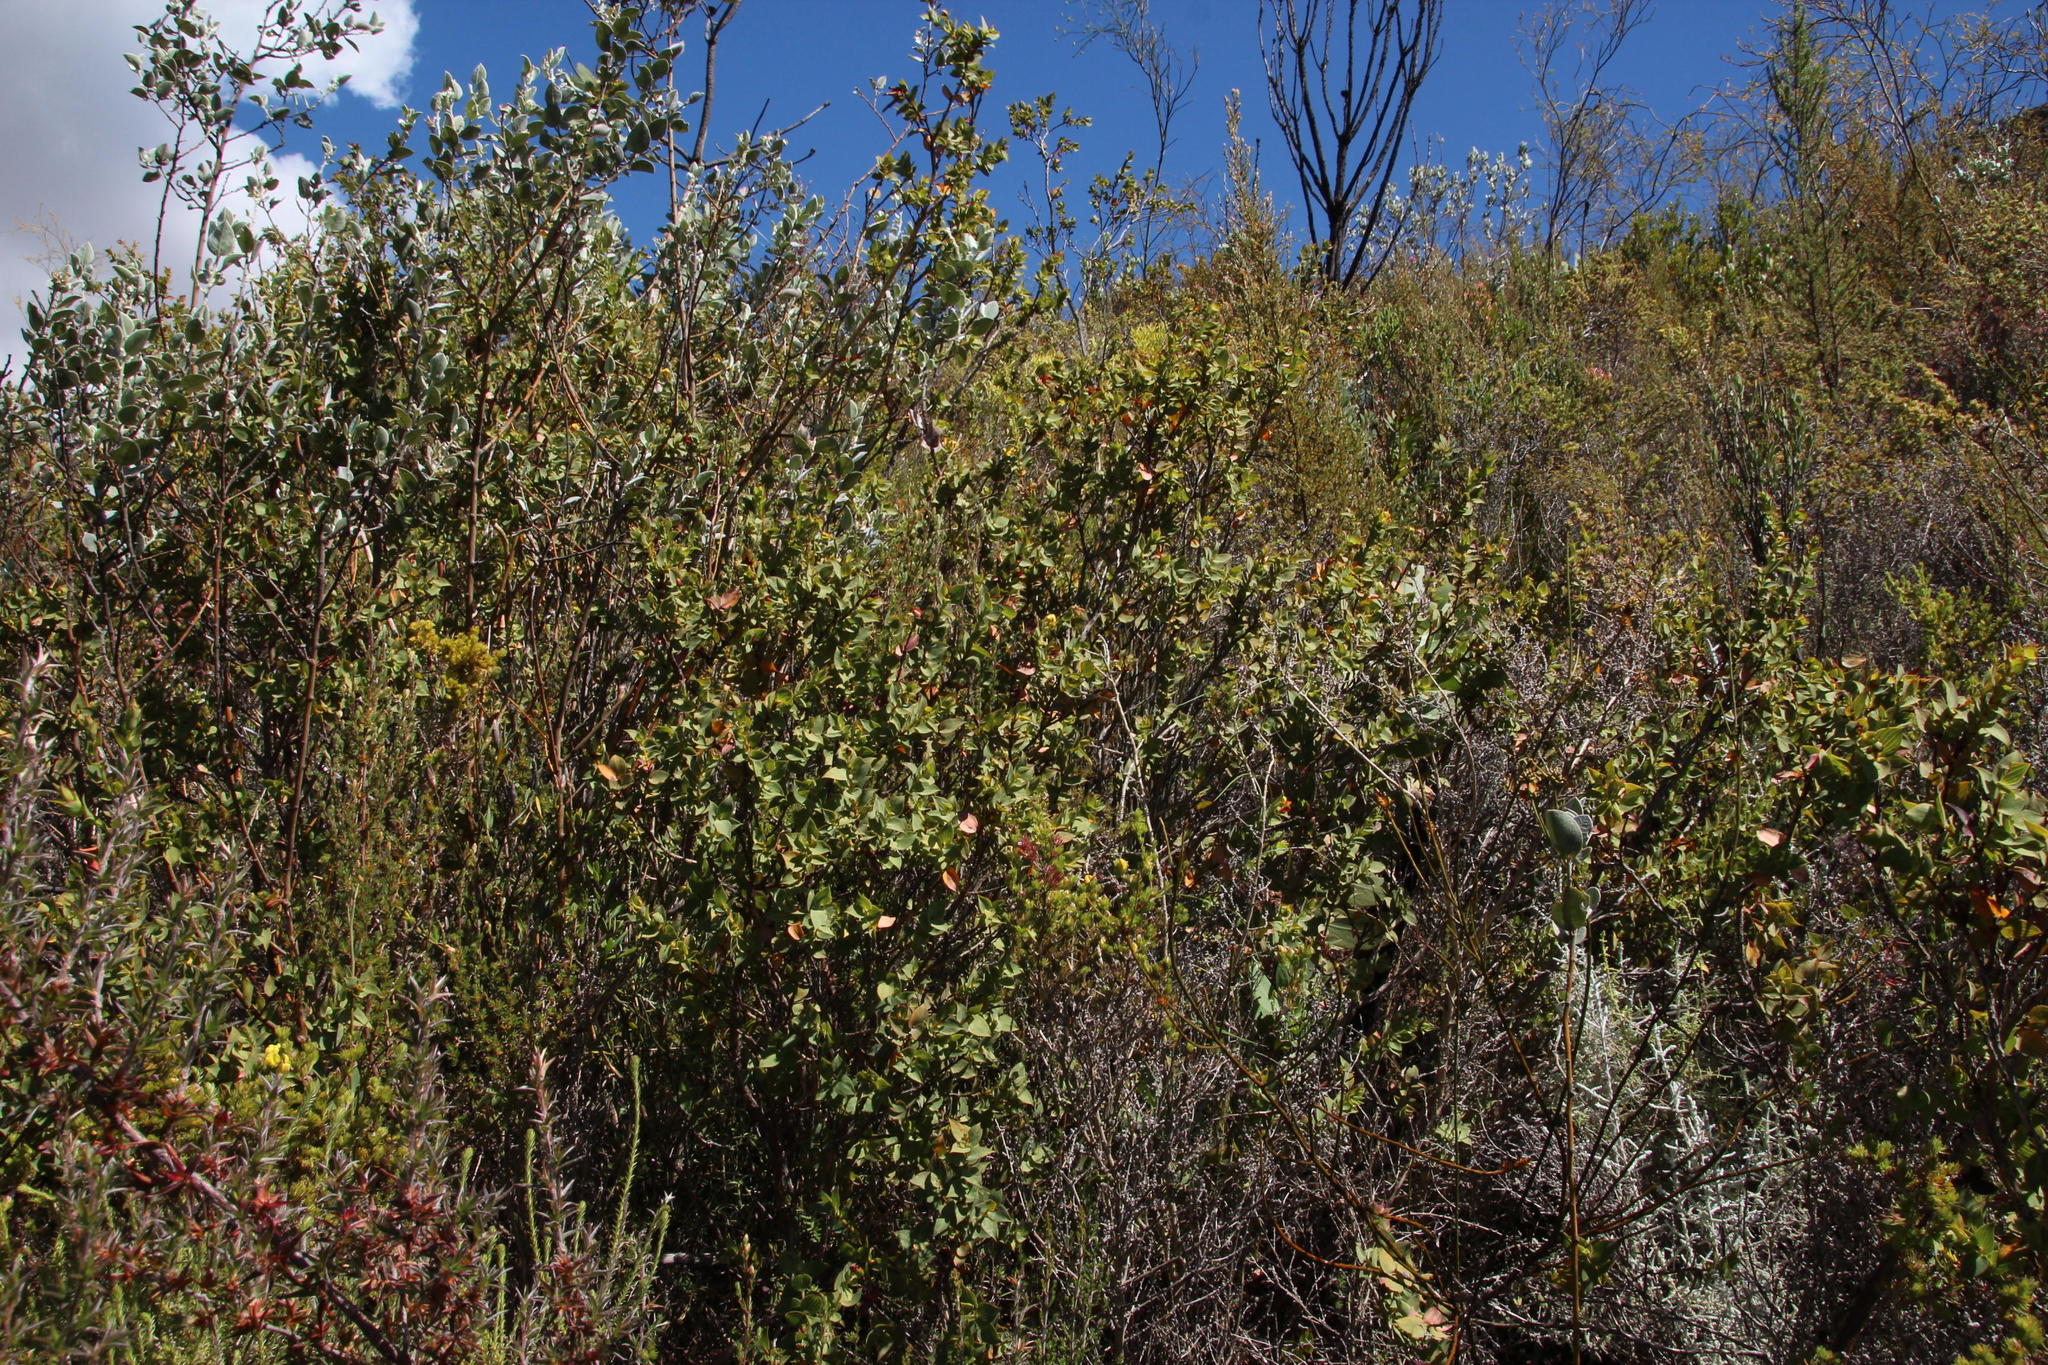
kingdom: Plantae
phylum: Tracheophyta
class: Magnoliopsida
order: Fabales
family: Fabaceae
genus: Aspalathus
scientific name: Aspalathus crenata
